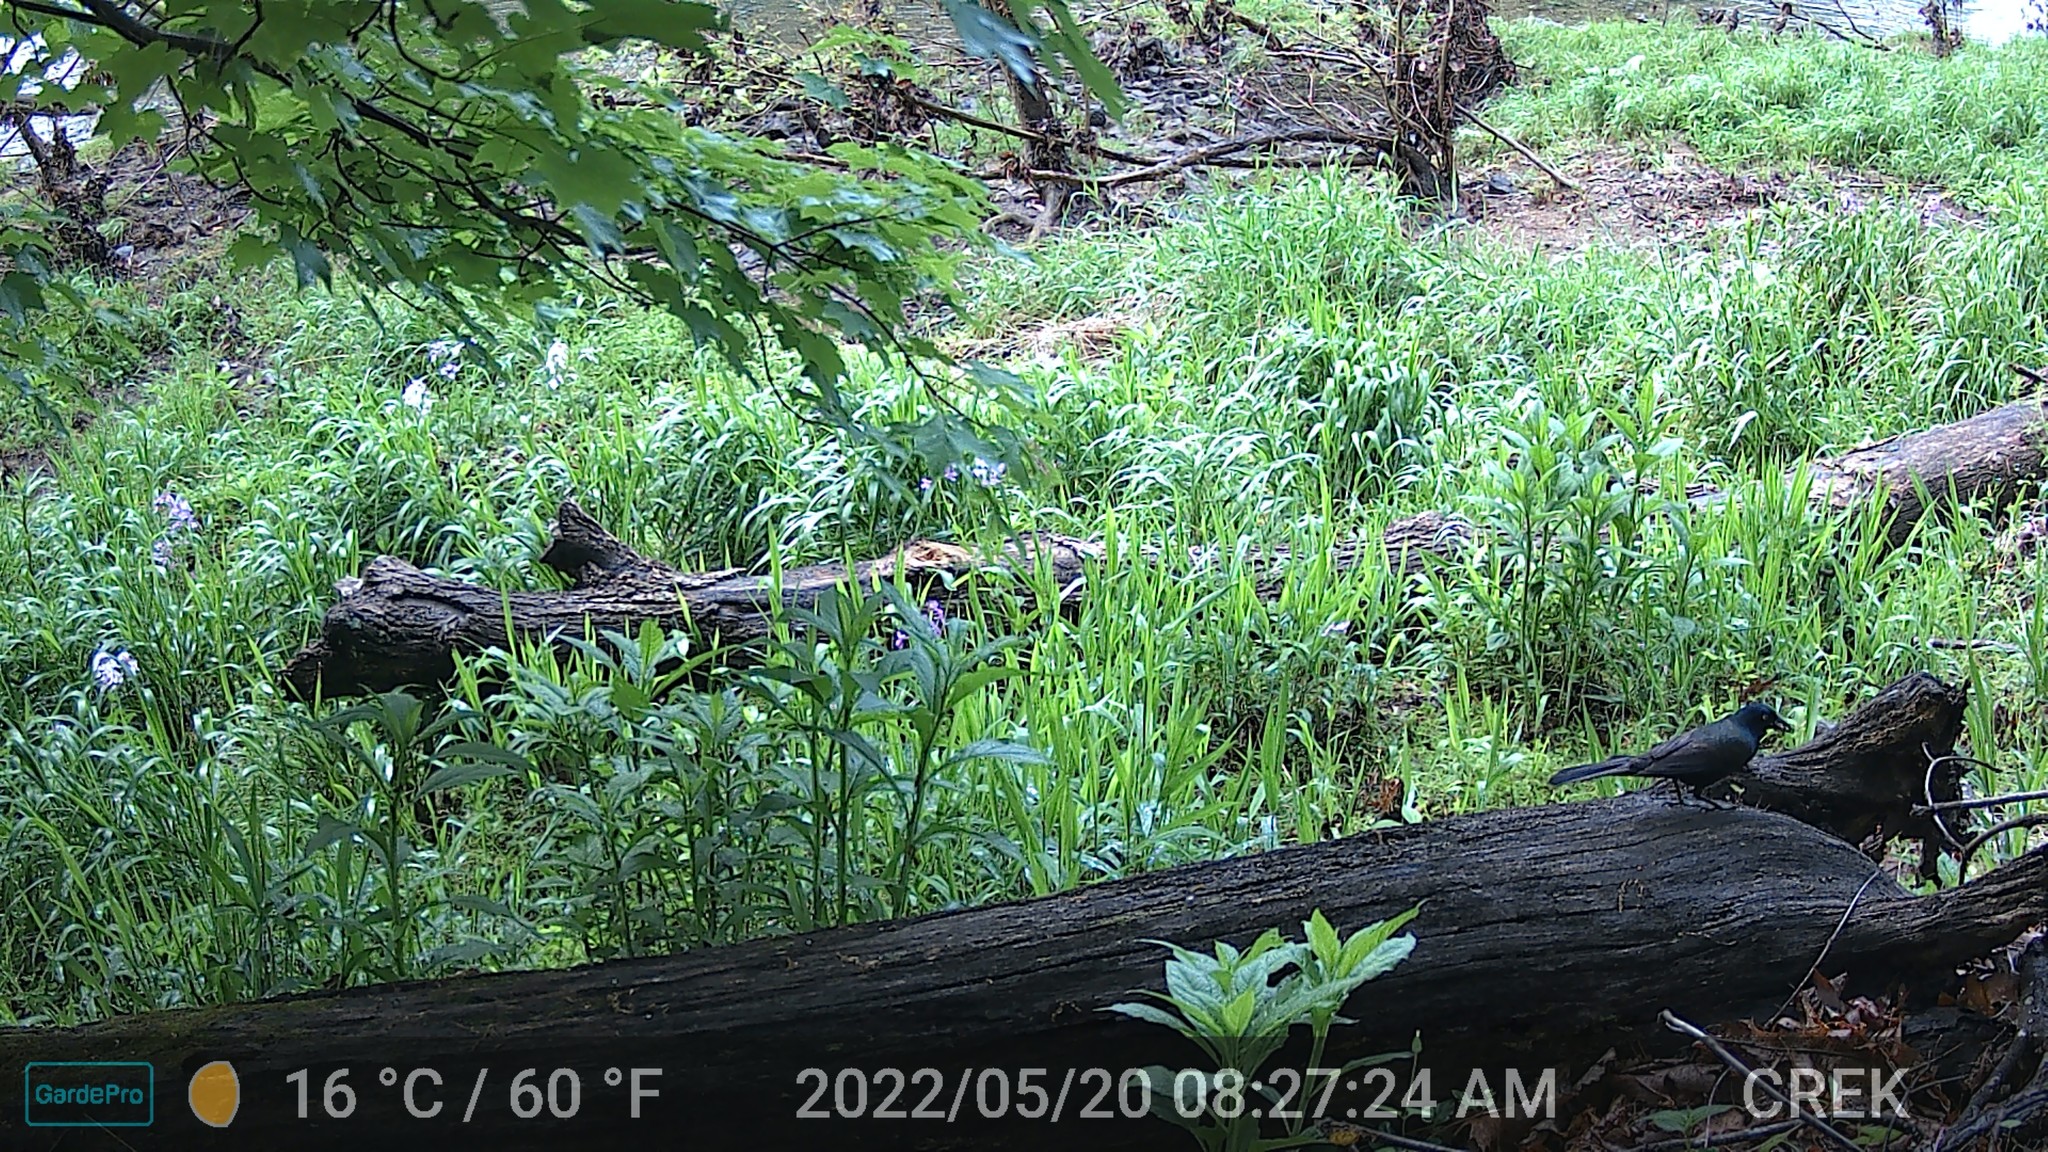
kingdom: Animalia
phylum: Chordata
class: Aves
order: Passeriformes
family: Icteridae
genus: Quiscalus
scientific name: Quiscalus quiscula
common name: Common grackle
